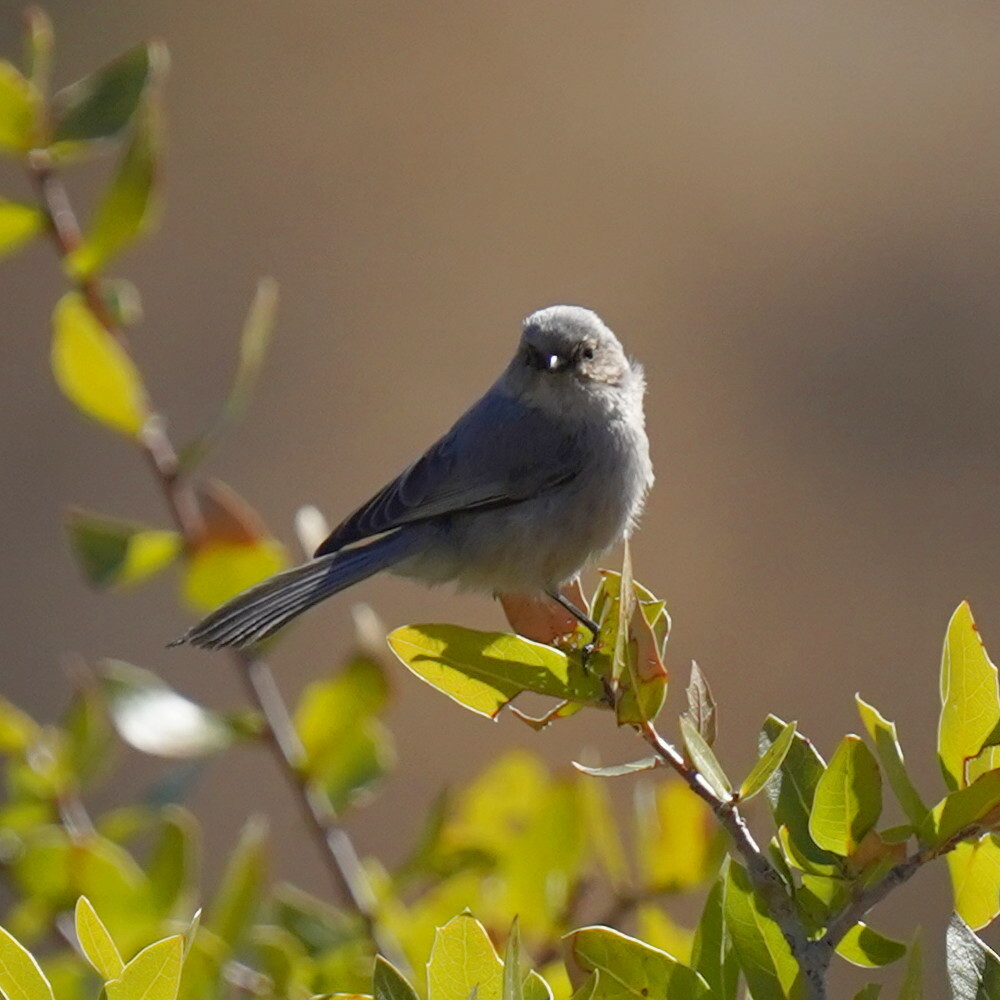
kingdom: Animalia
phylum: Chordata
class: Aves
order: Passeriformes
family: Aegithalidae
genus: Psaltriparus
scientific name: Psaltriparus minimus
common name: American bushtit
